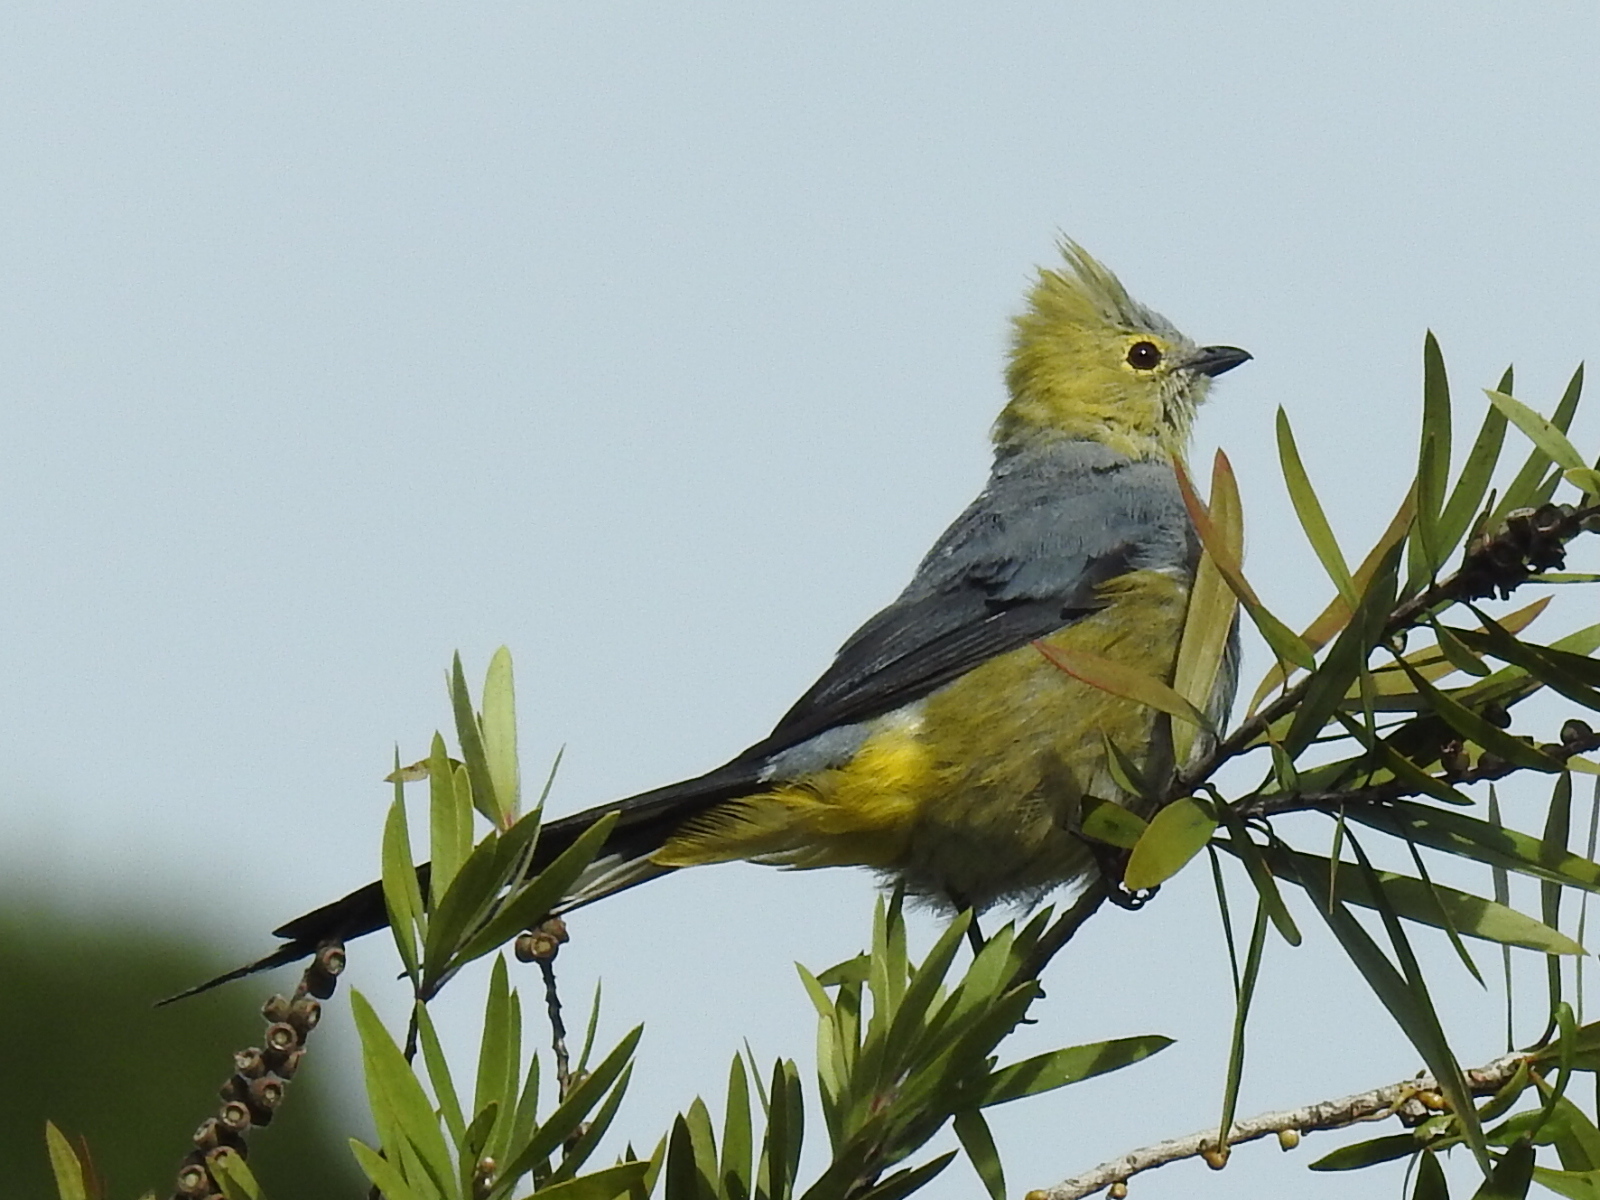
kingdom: Animalia
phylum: Chordata
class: Aves
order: Passeriformes
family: Ptilogonatidae
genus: Ptilogonys
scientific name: Ptilogonys caudatus
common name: Long-tailed silky-flycatcher
